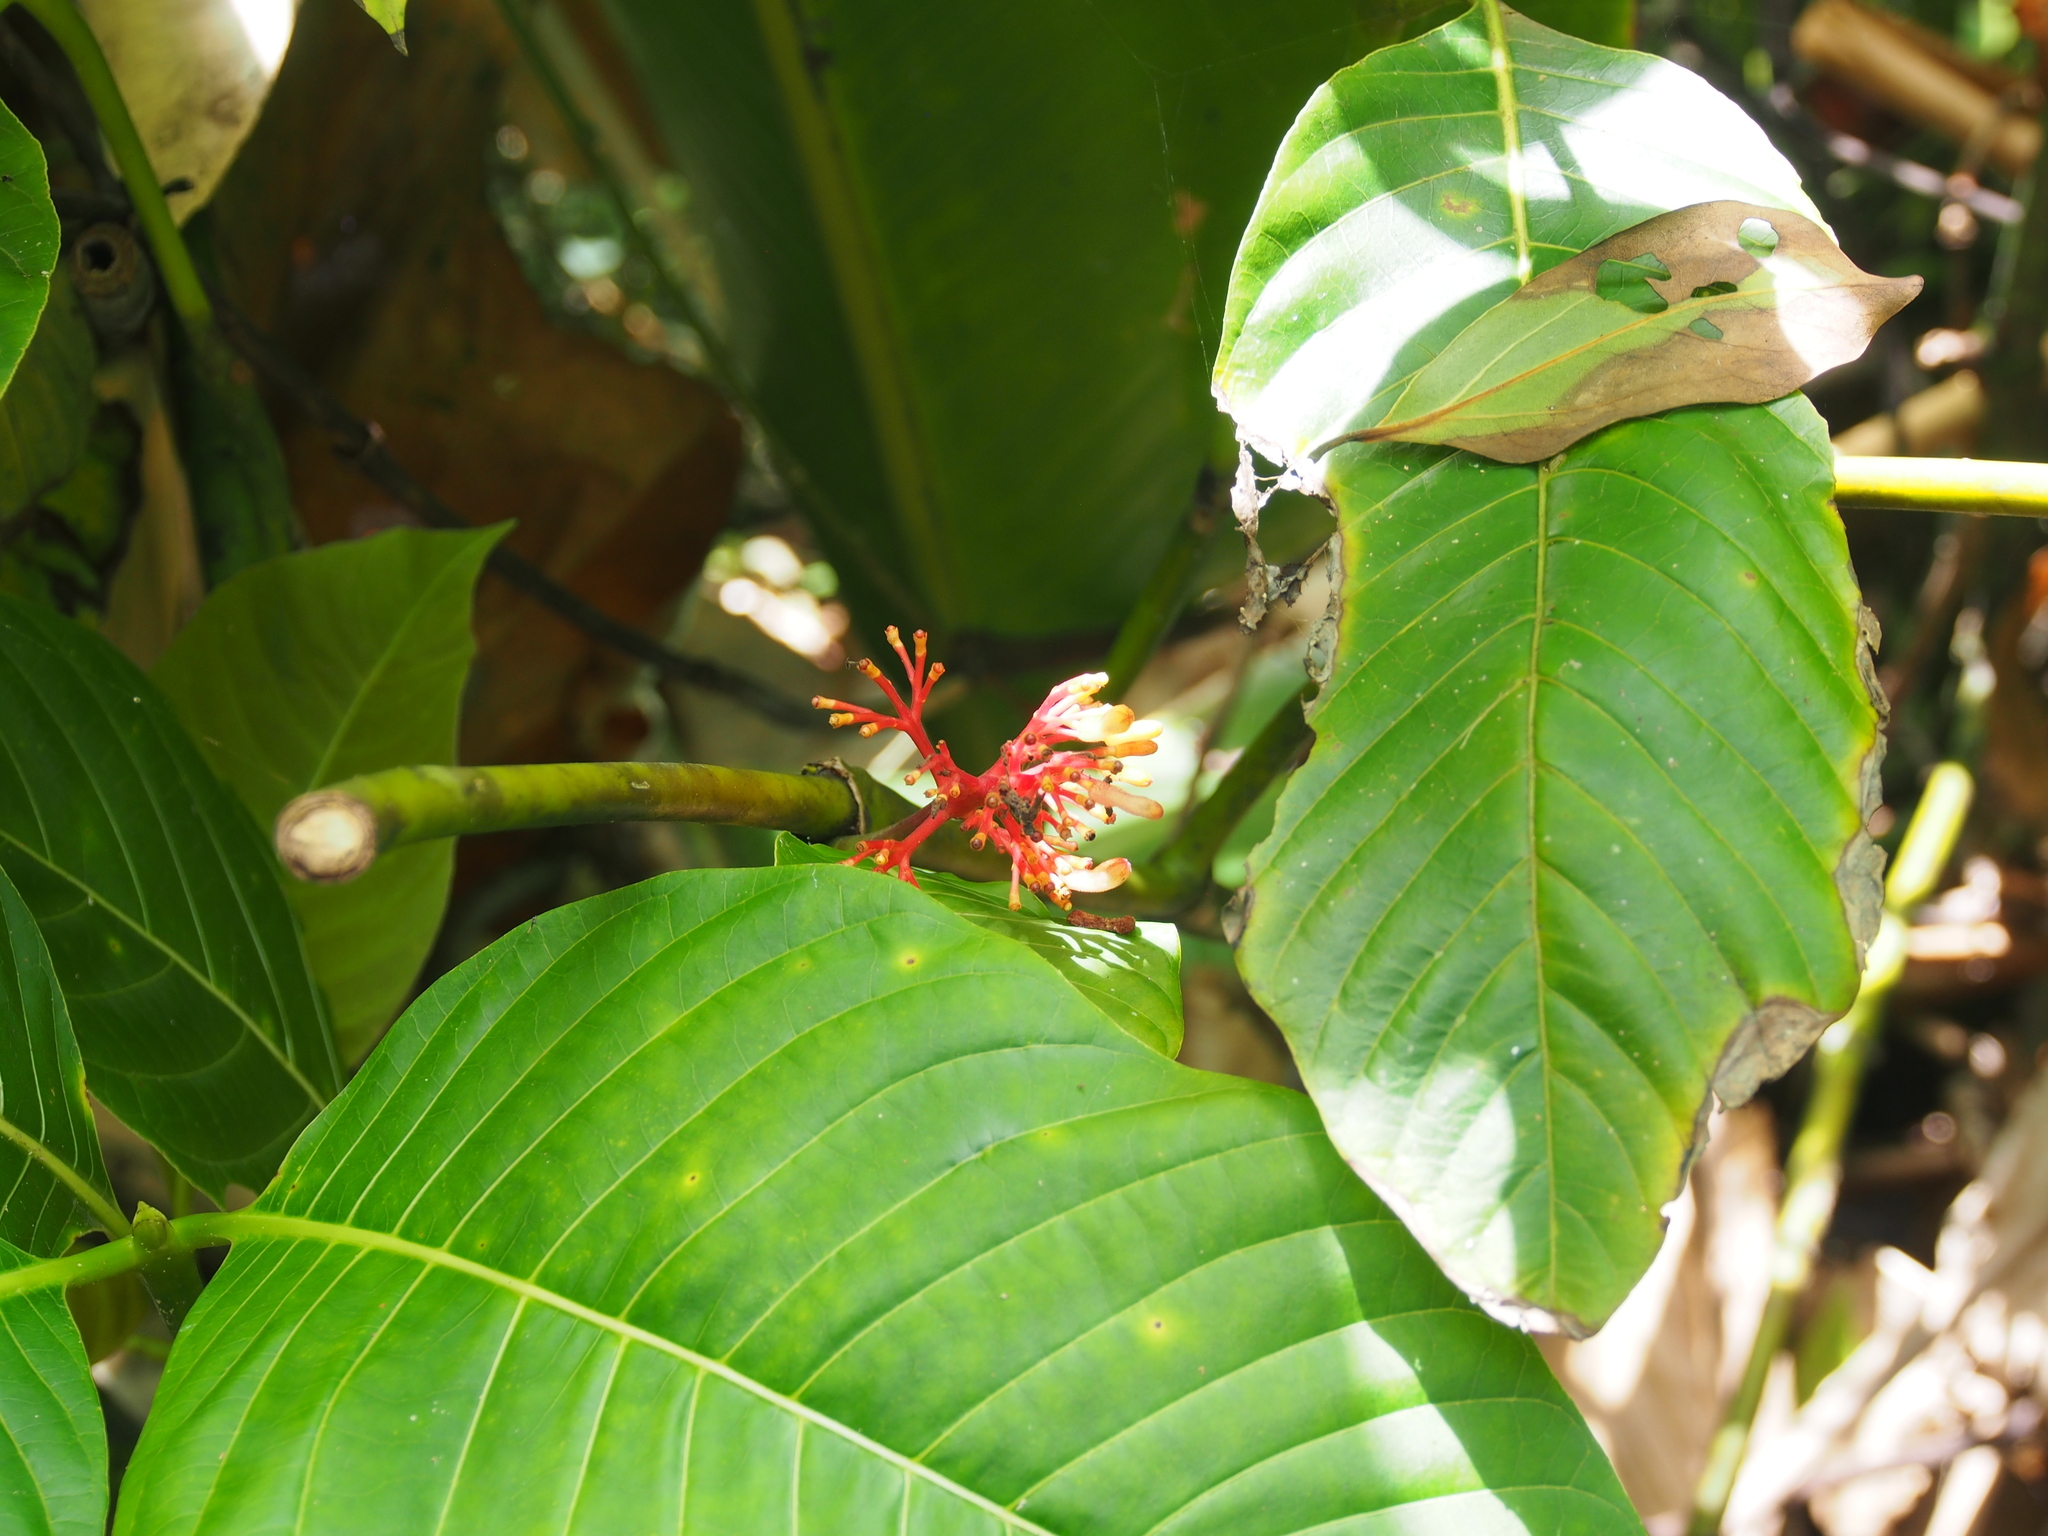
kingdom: Plantae
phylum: Tracheophyta
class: Magnoliopsida
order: Gentianales
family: Rubiaceae
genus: Palicourea
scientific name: Palicourea guianensis
